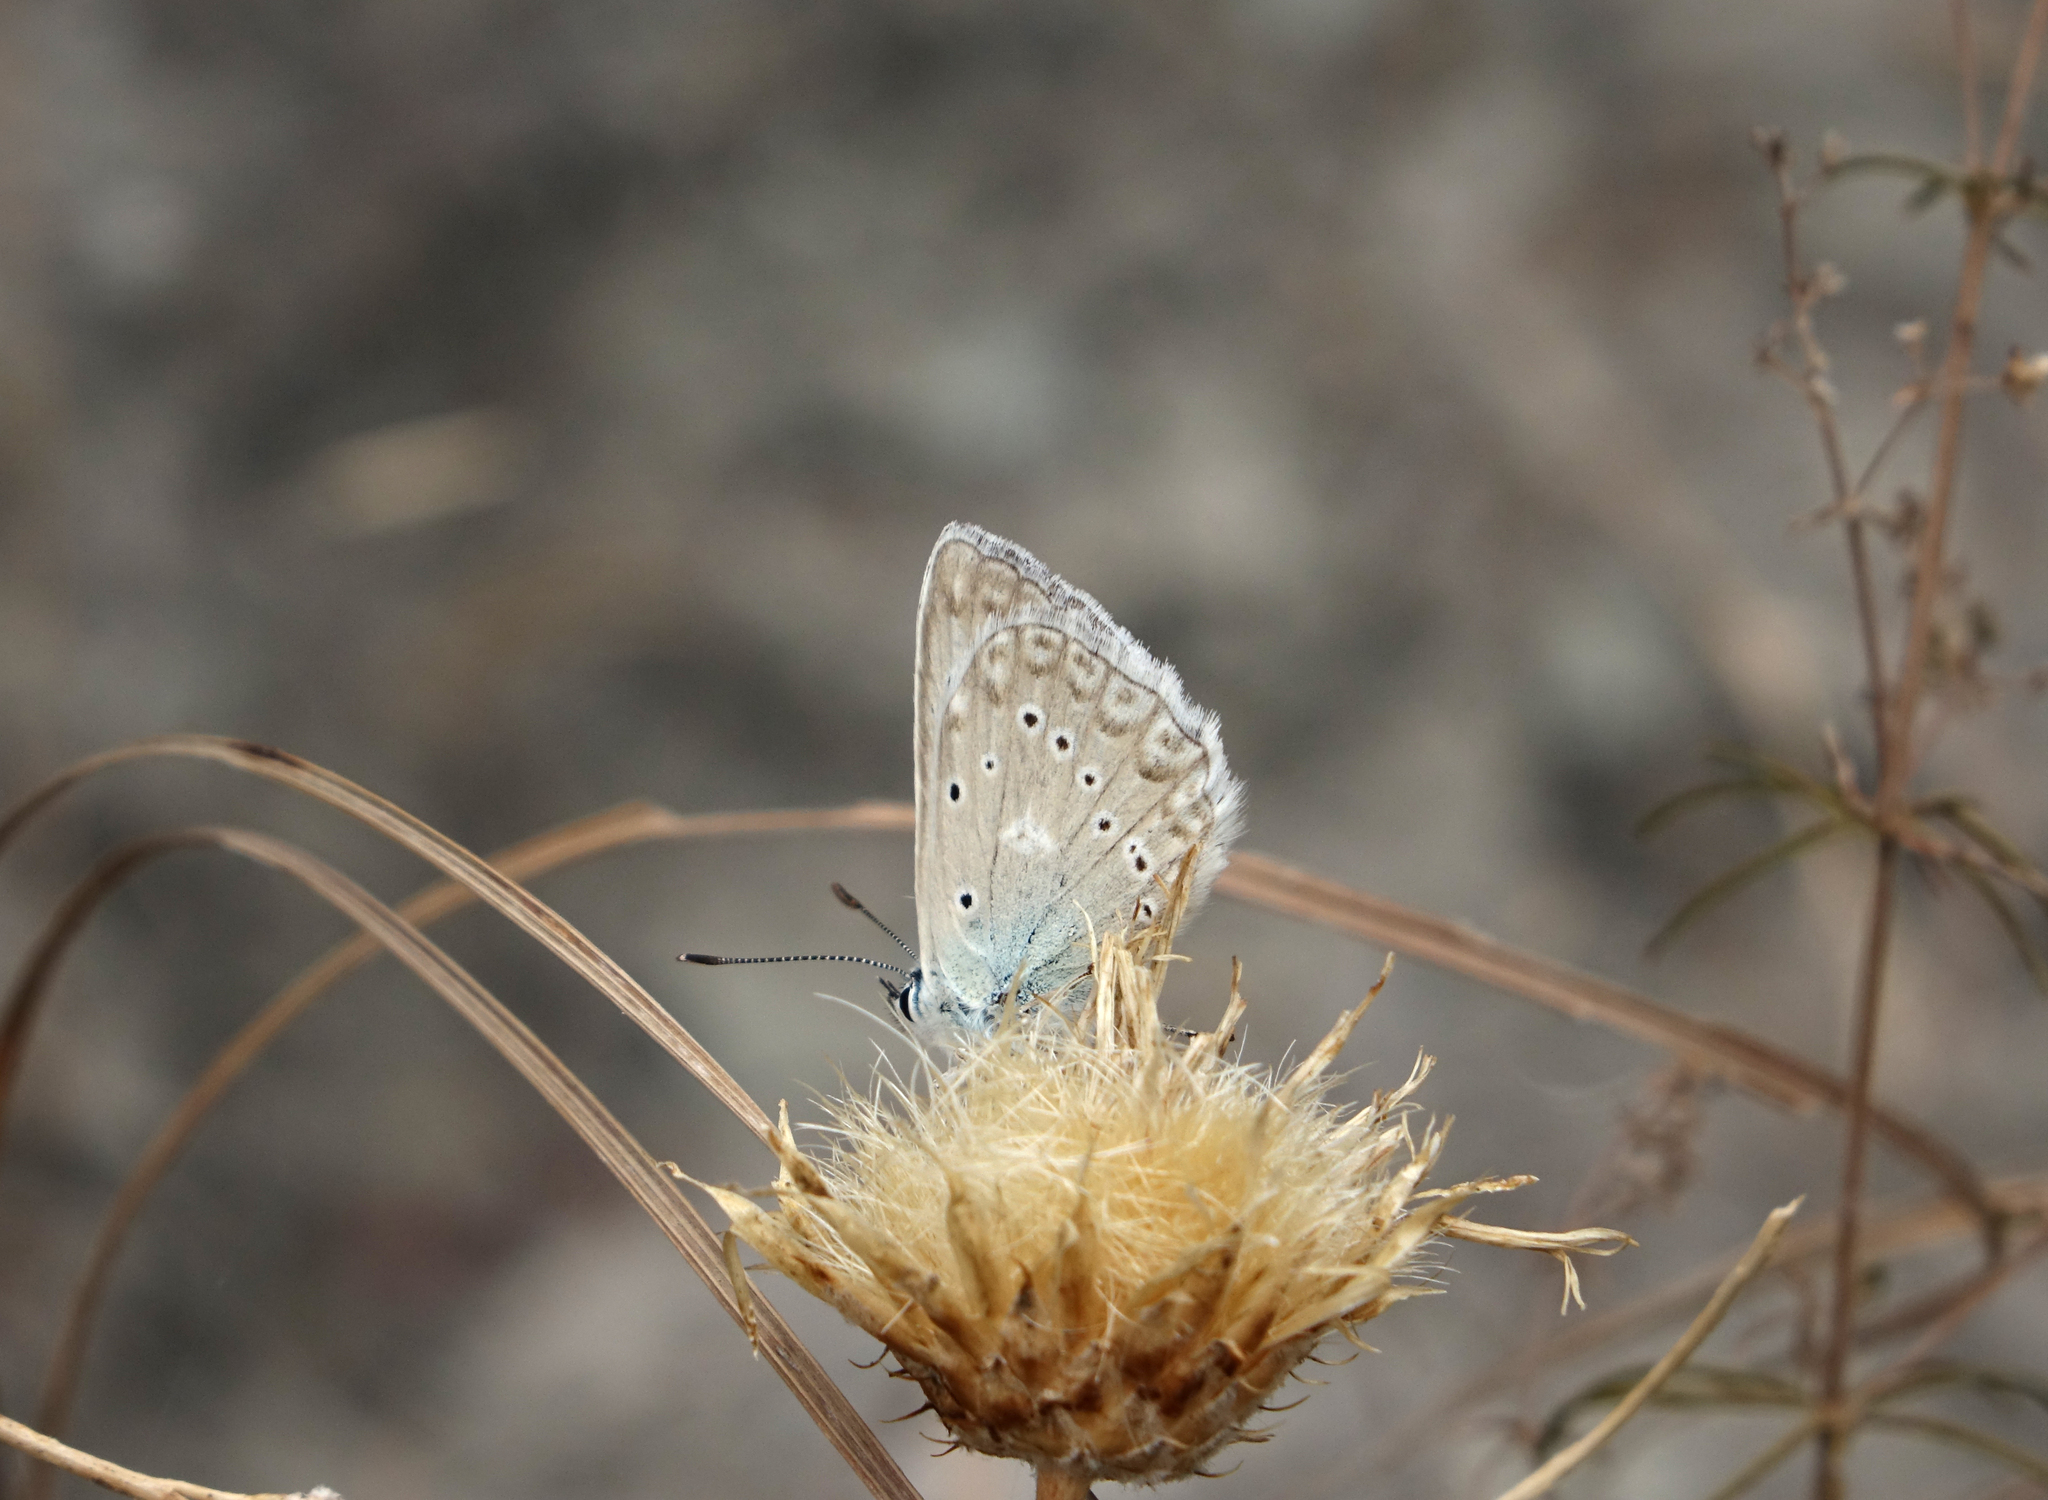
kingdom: Animalia
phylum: Arthropoda
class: Insecta
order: Lepidoptera
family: Lycaenidae
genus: Polyommatus
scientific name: Polyommatus daphnis
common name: Meleager's blue
